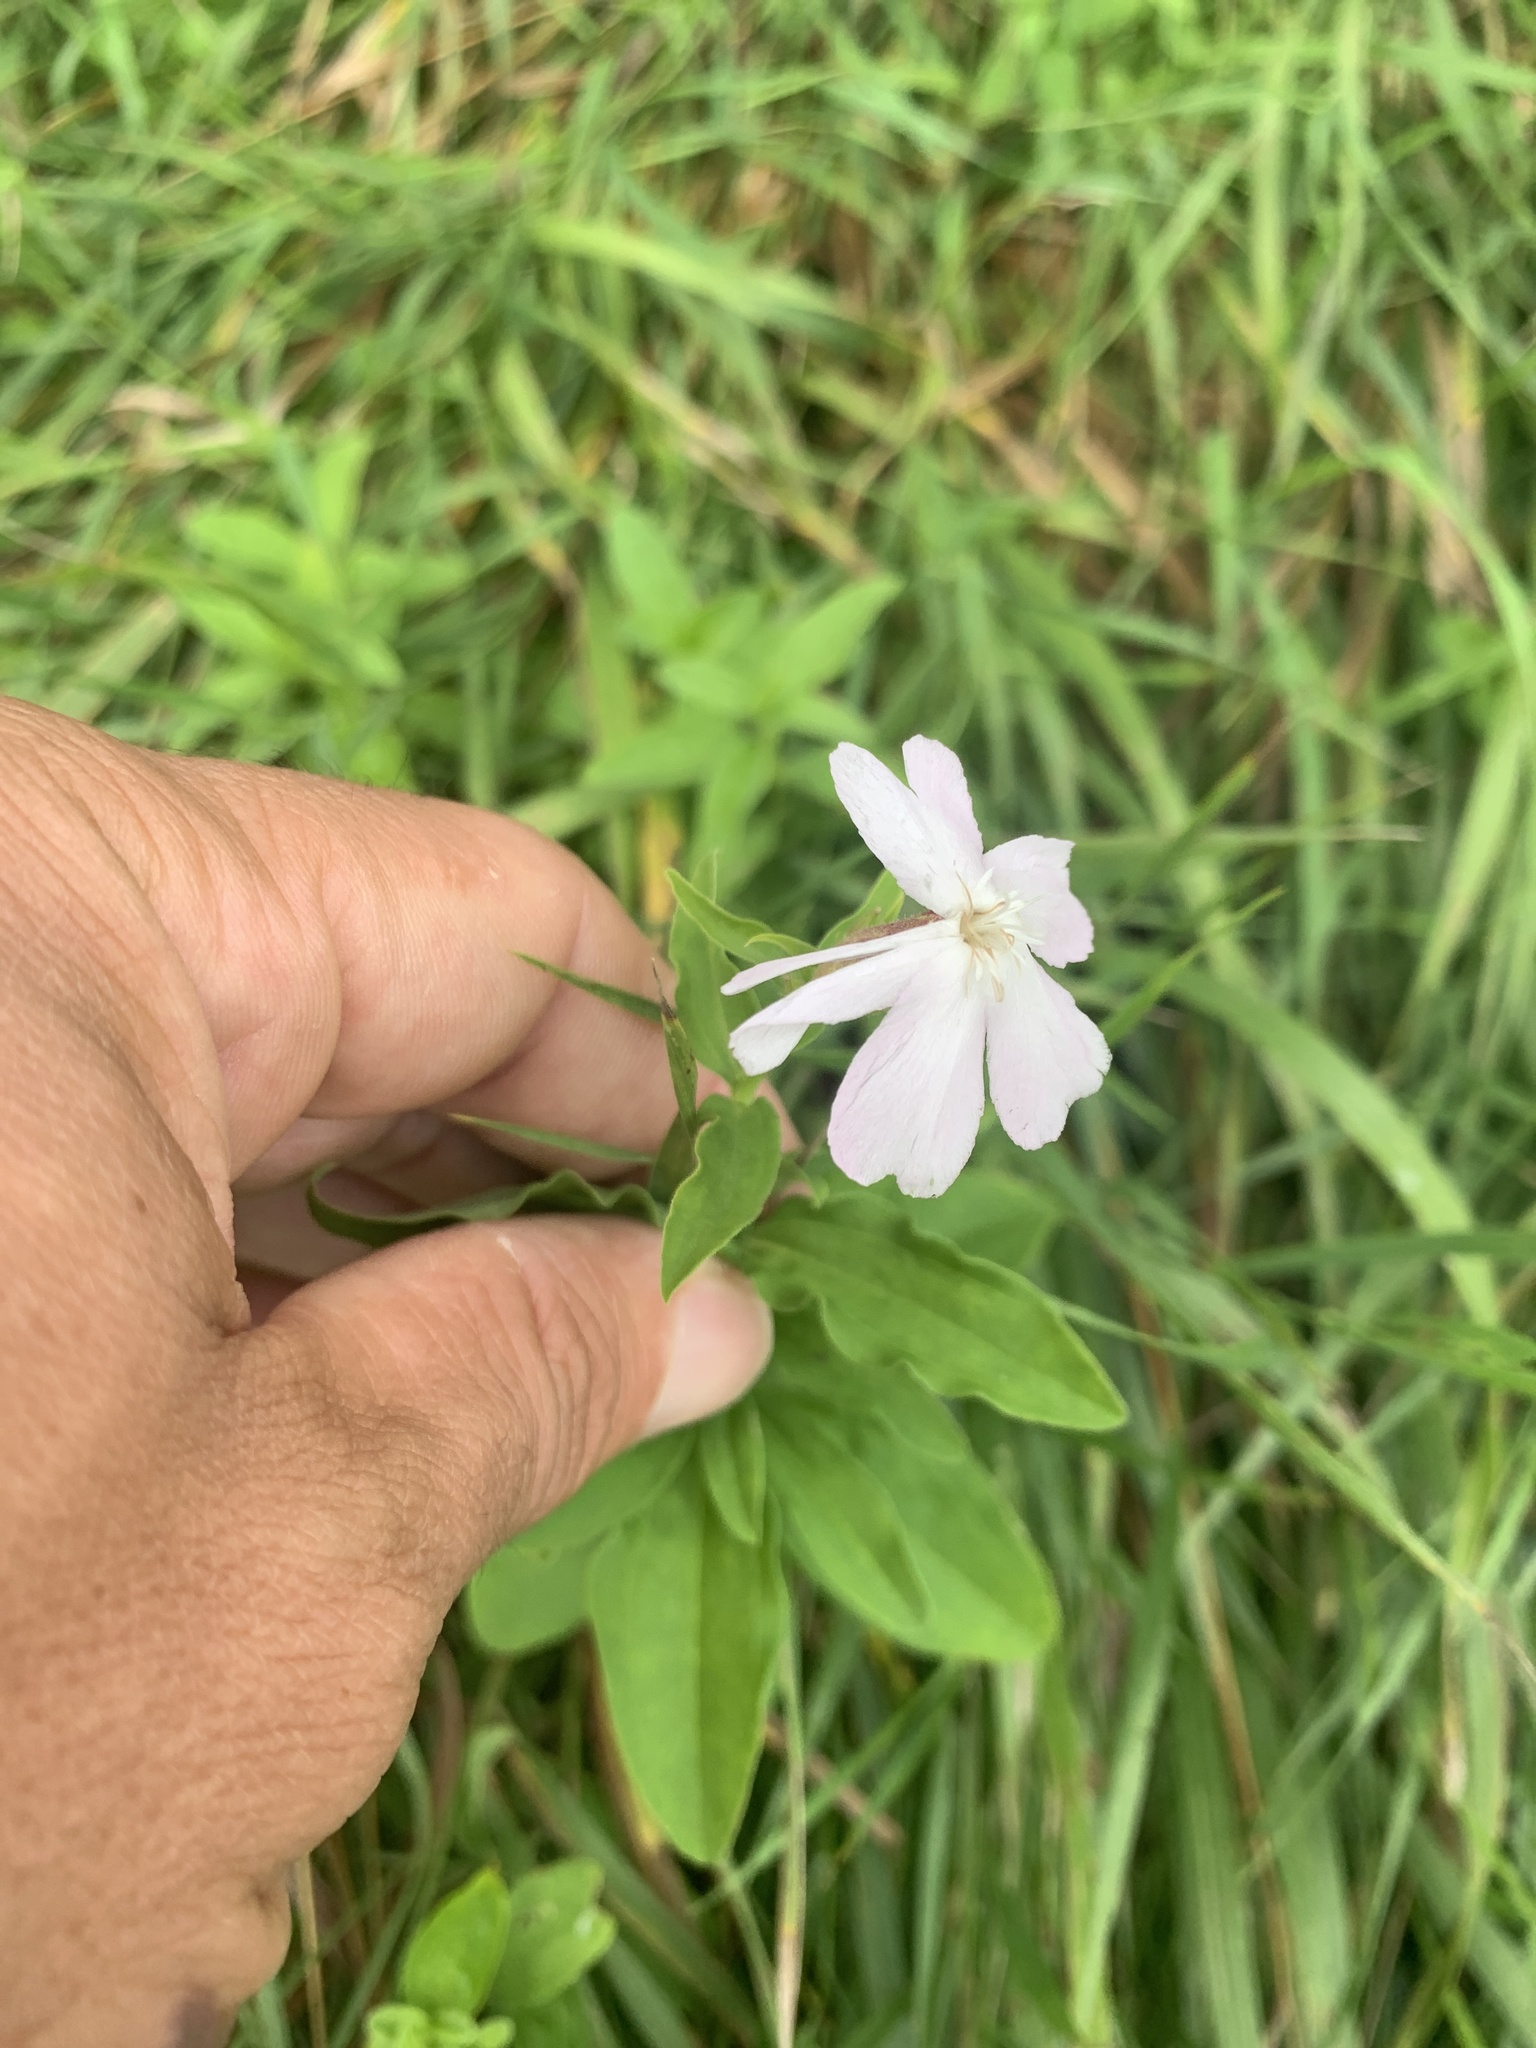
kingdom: Plantae
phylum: Tracheophyta
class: Magnoliopsida
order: Caryophyllales
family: Caryophyllaceae
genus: Saponaria
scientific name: Saponaria officinalis
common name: Soapwort
